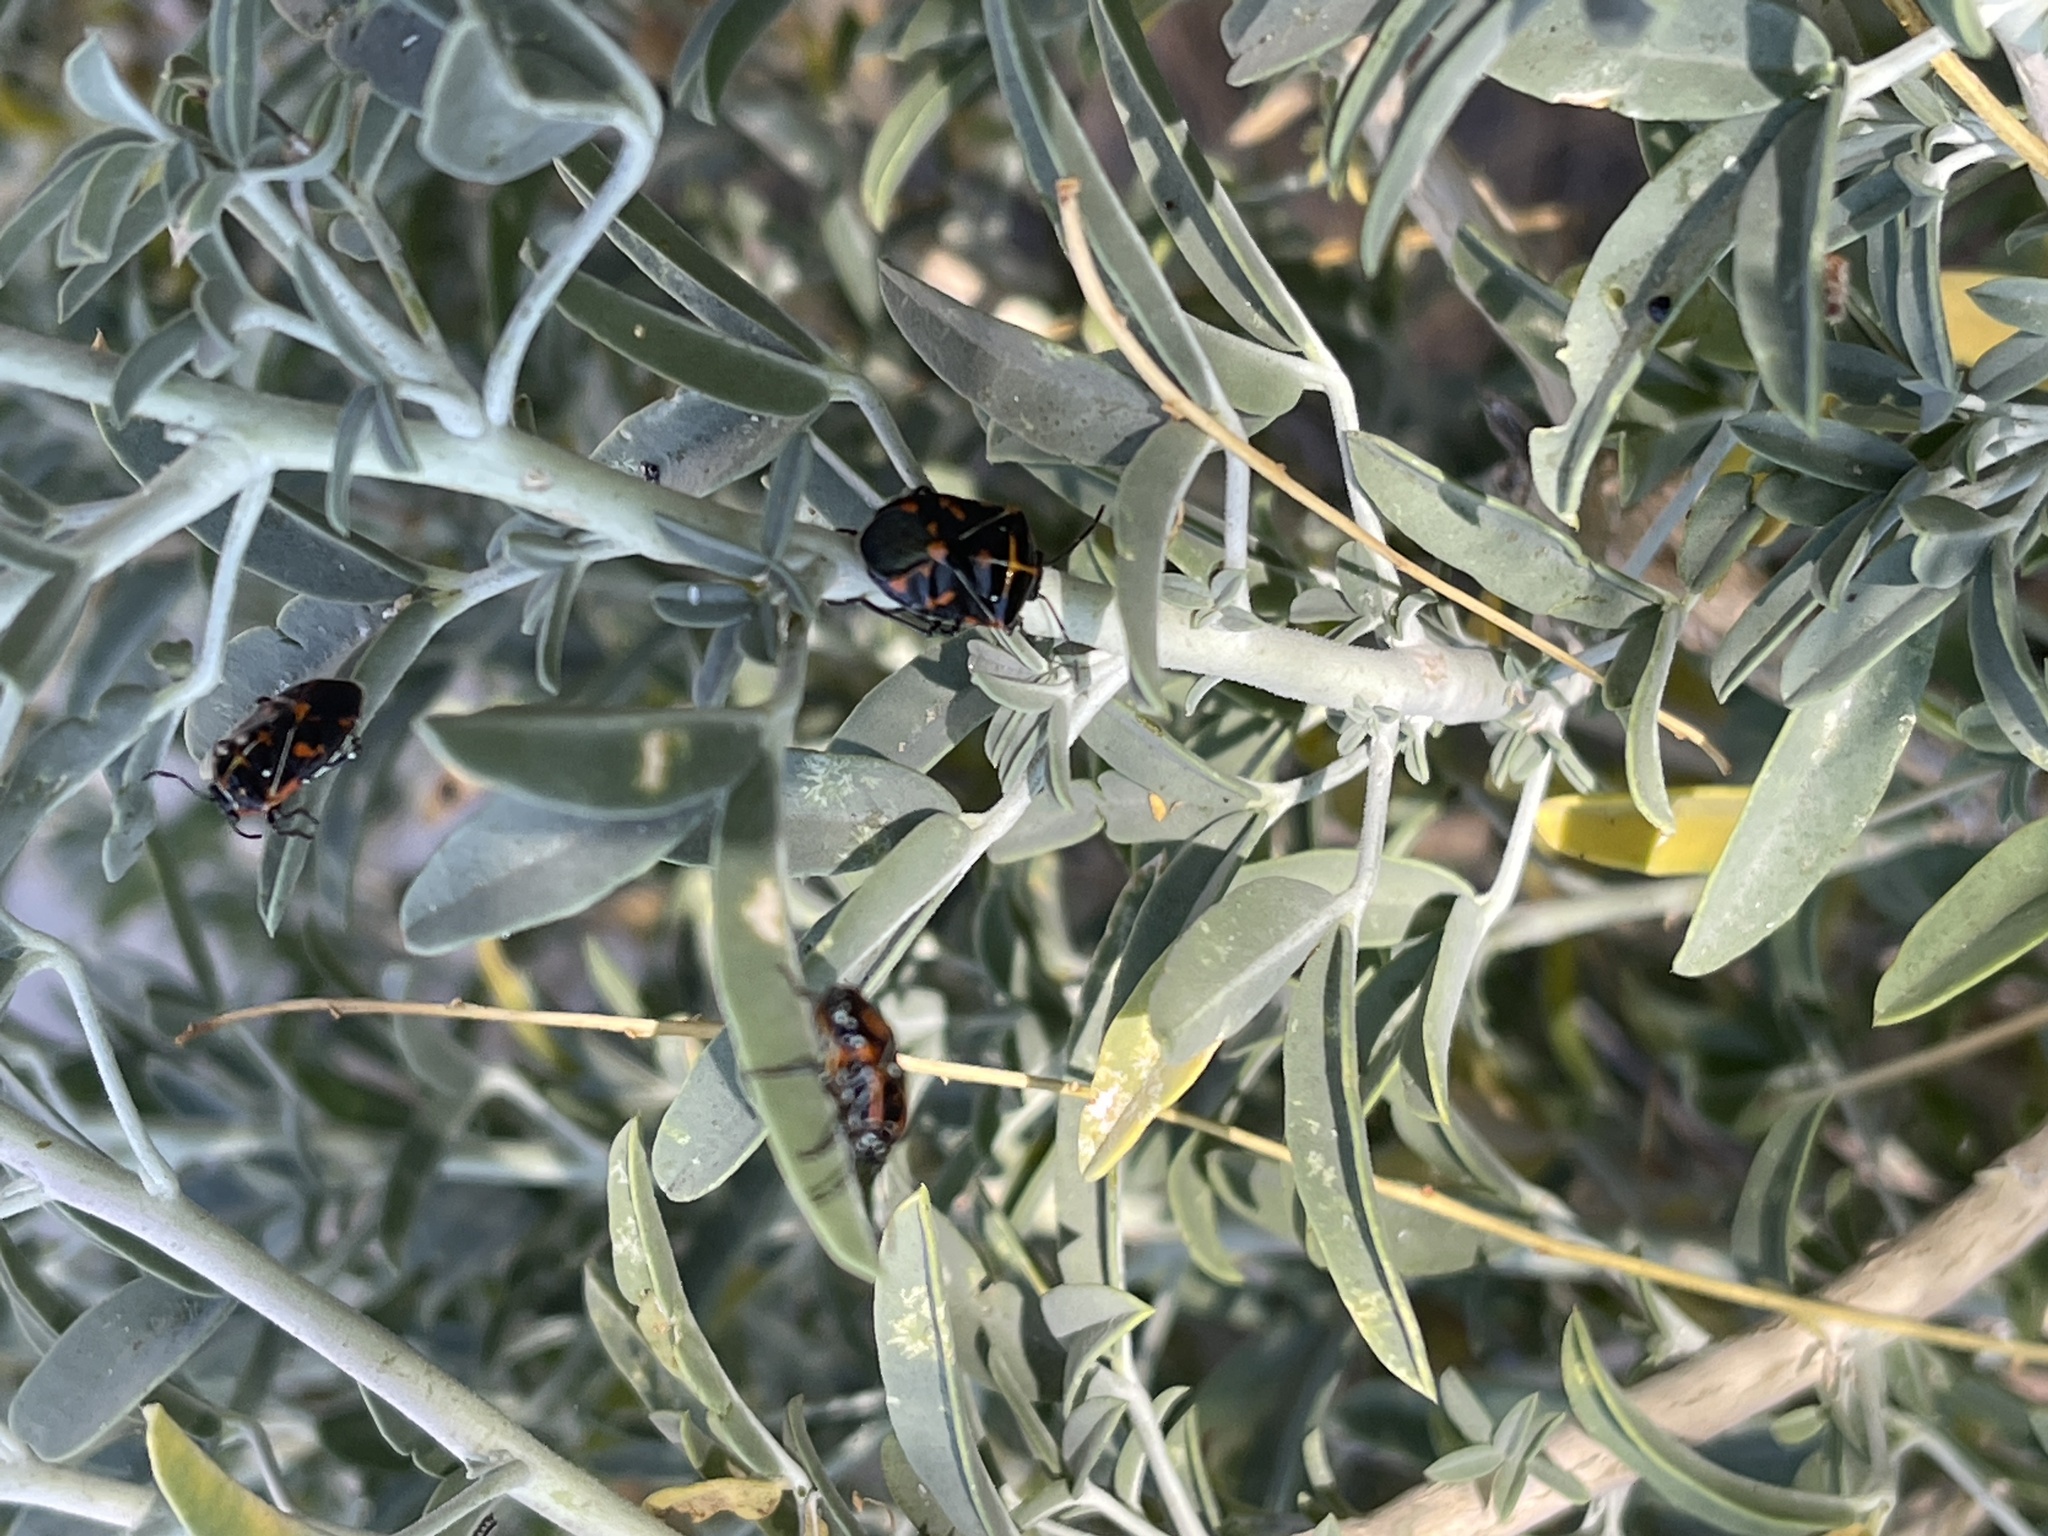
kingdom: Animalia
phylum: Arthropoda
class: Insecta
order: Hemiptera
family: Pentatomidae
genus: Murgantia
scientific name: Murgantia histrionica
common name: Harlequin bug
